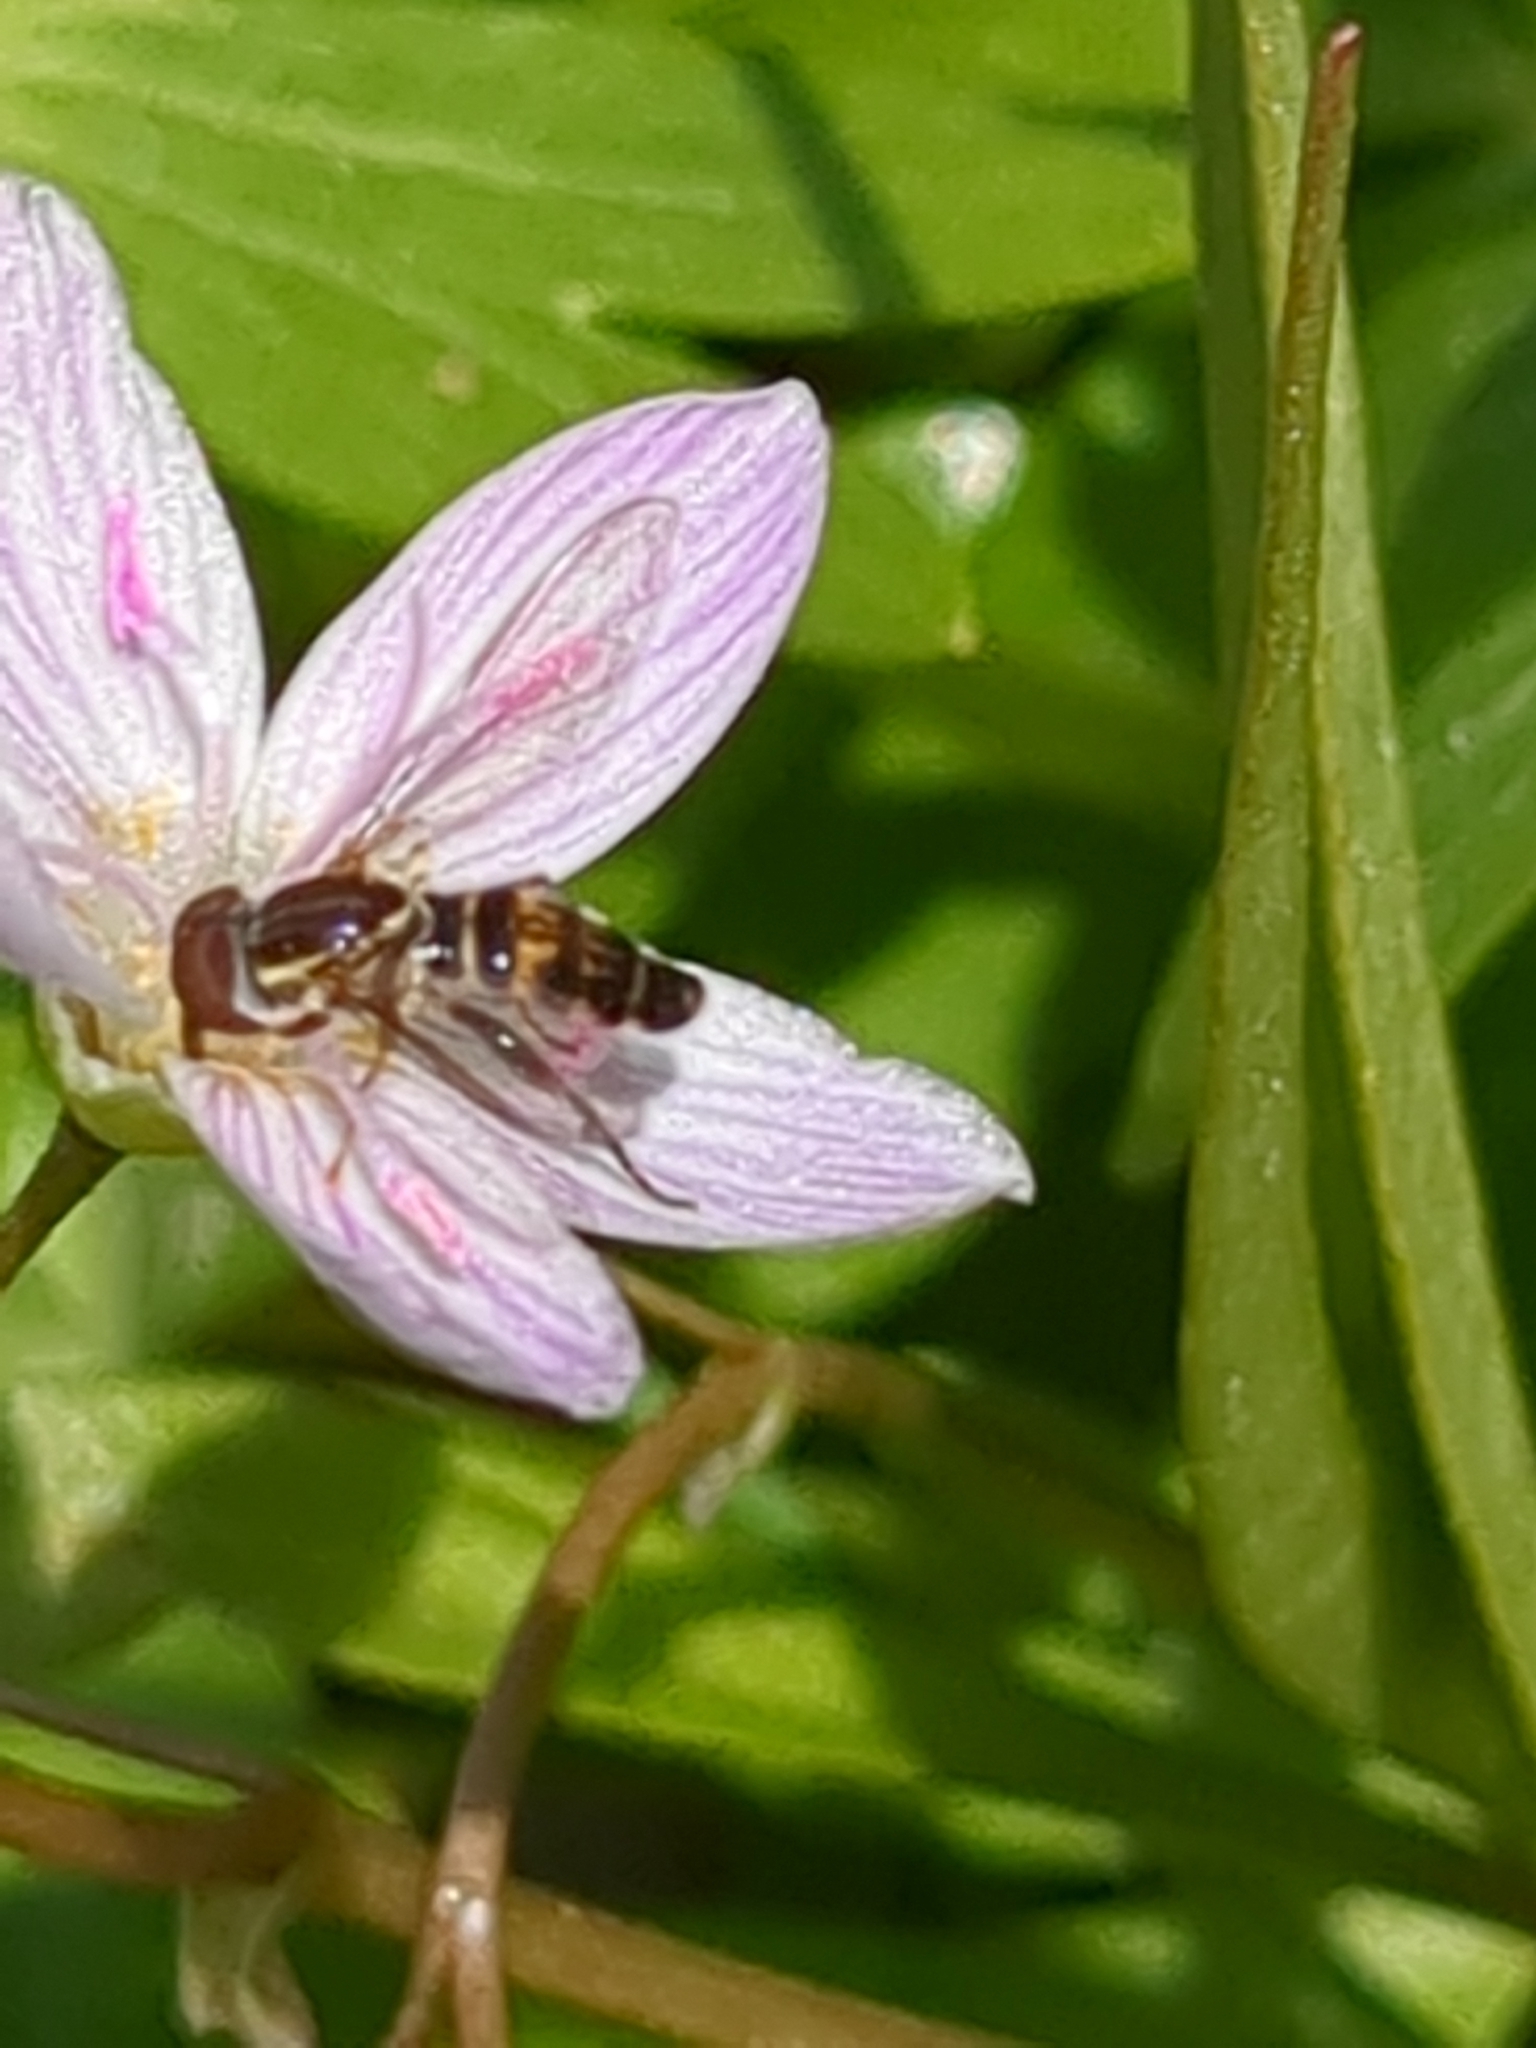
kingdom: Animalia
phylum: Arthropoda
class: Insecta
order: Diptera
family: Syrphidae
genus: Toxomerus
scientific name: Toxomerus geminatus
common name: Eastern calligrapher
